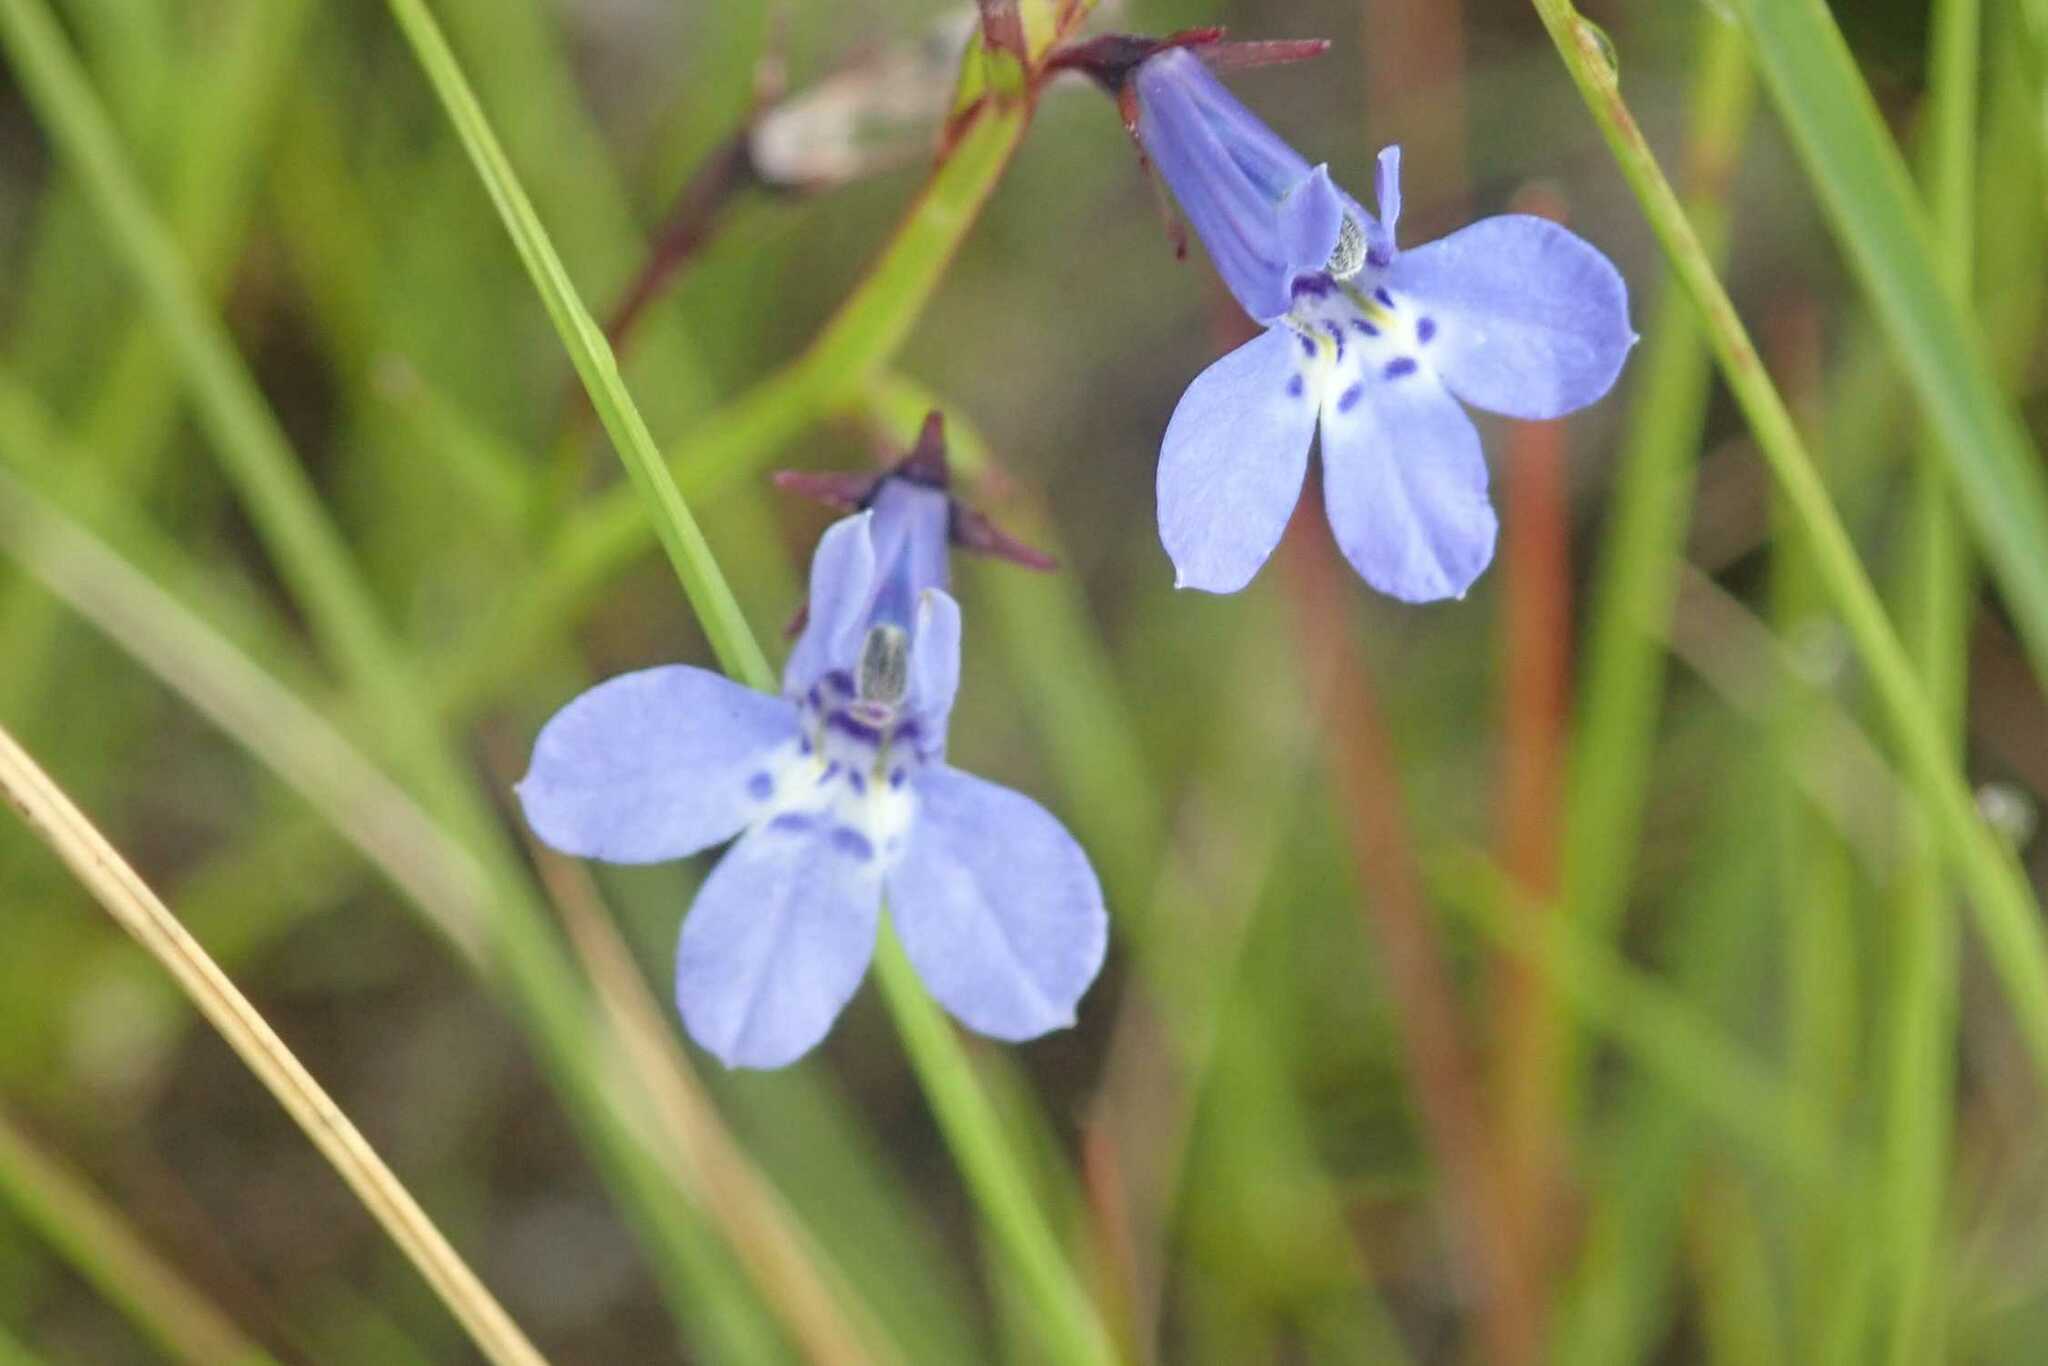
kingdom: Plantae
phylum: Tracheophyta
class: Magnoliopsida
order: Asterales
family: Campanulaceae
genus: Lobelia
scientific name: Lobelia flaccida
